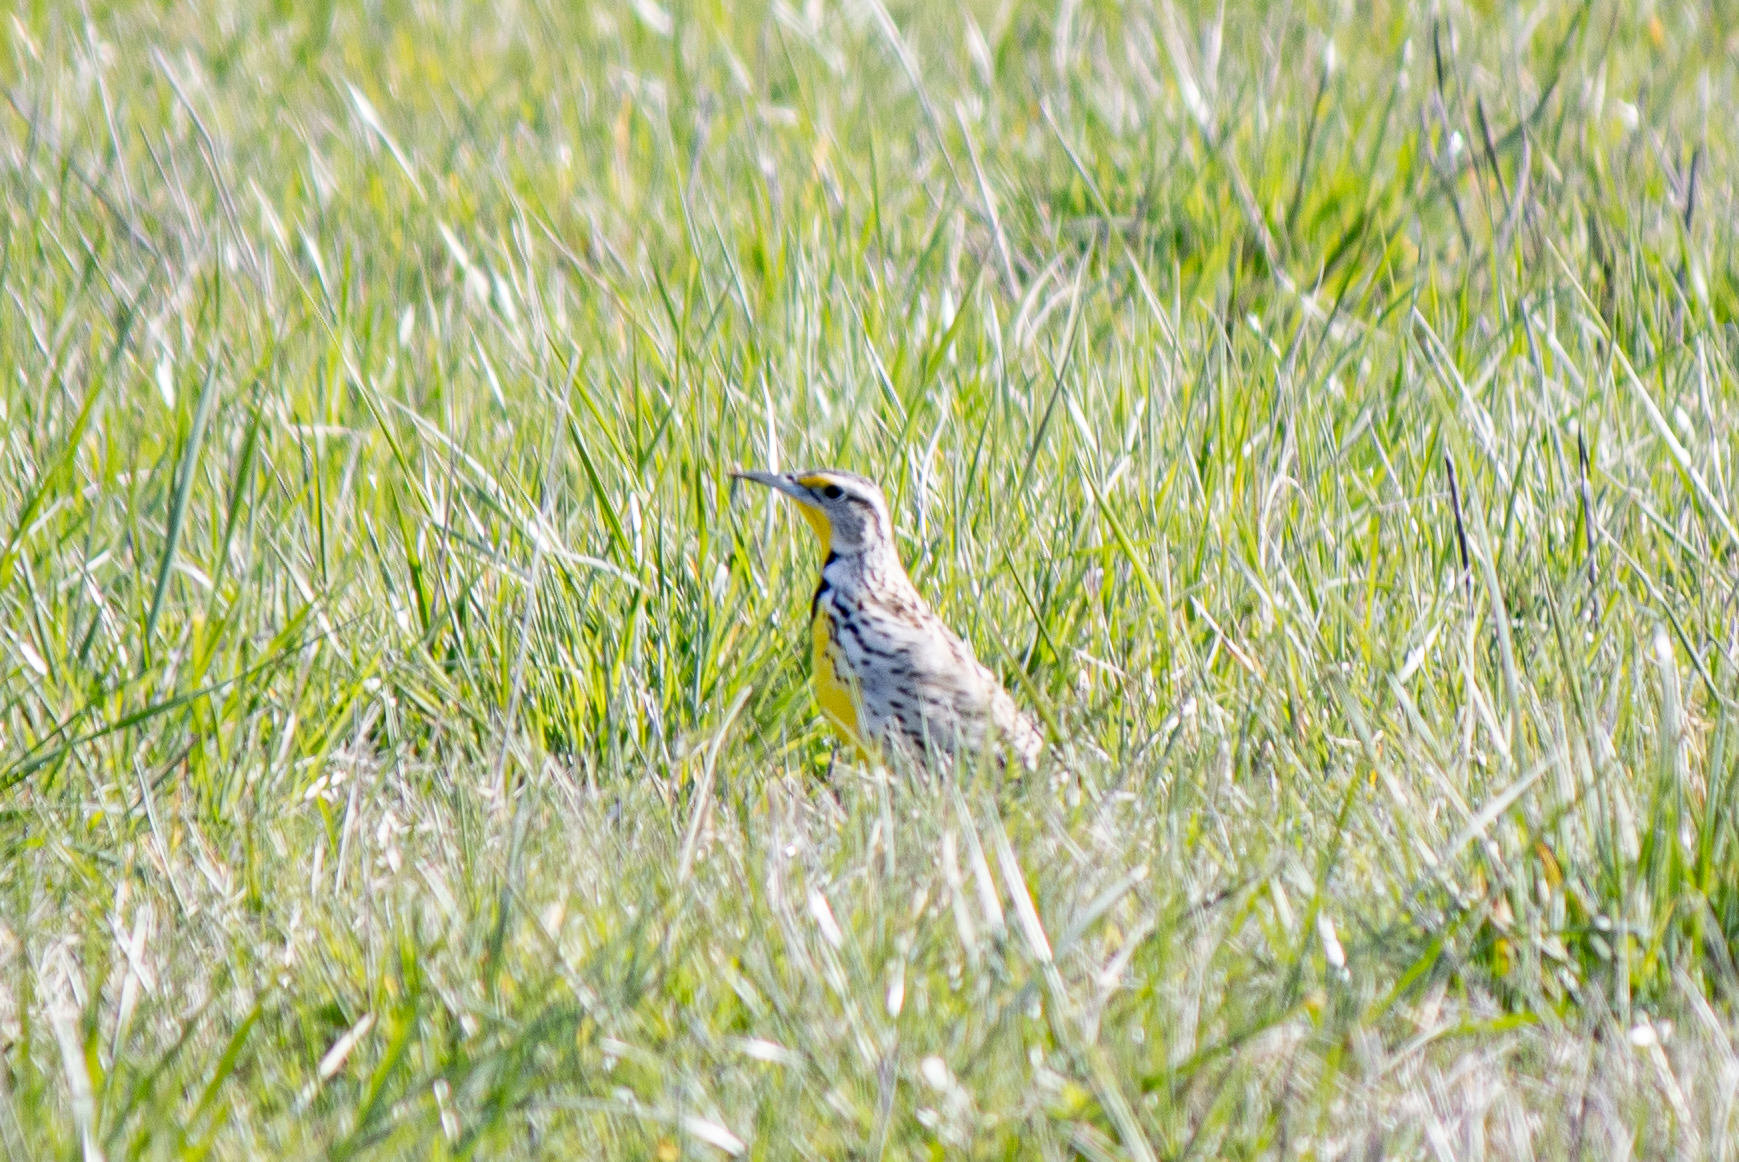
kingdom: Animalia
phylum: Chordata
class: Aves
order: Passeriformes
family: Icteridae
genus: Sturnella
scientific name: Sturnella neglecta
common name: Western meadowlark
